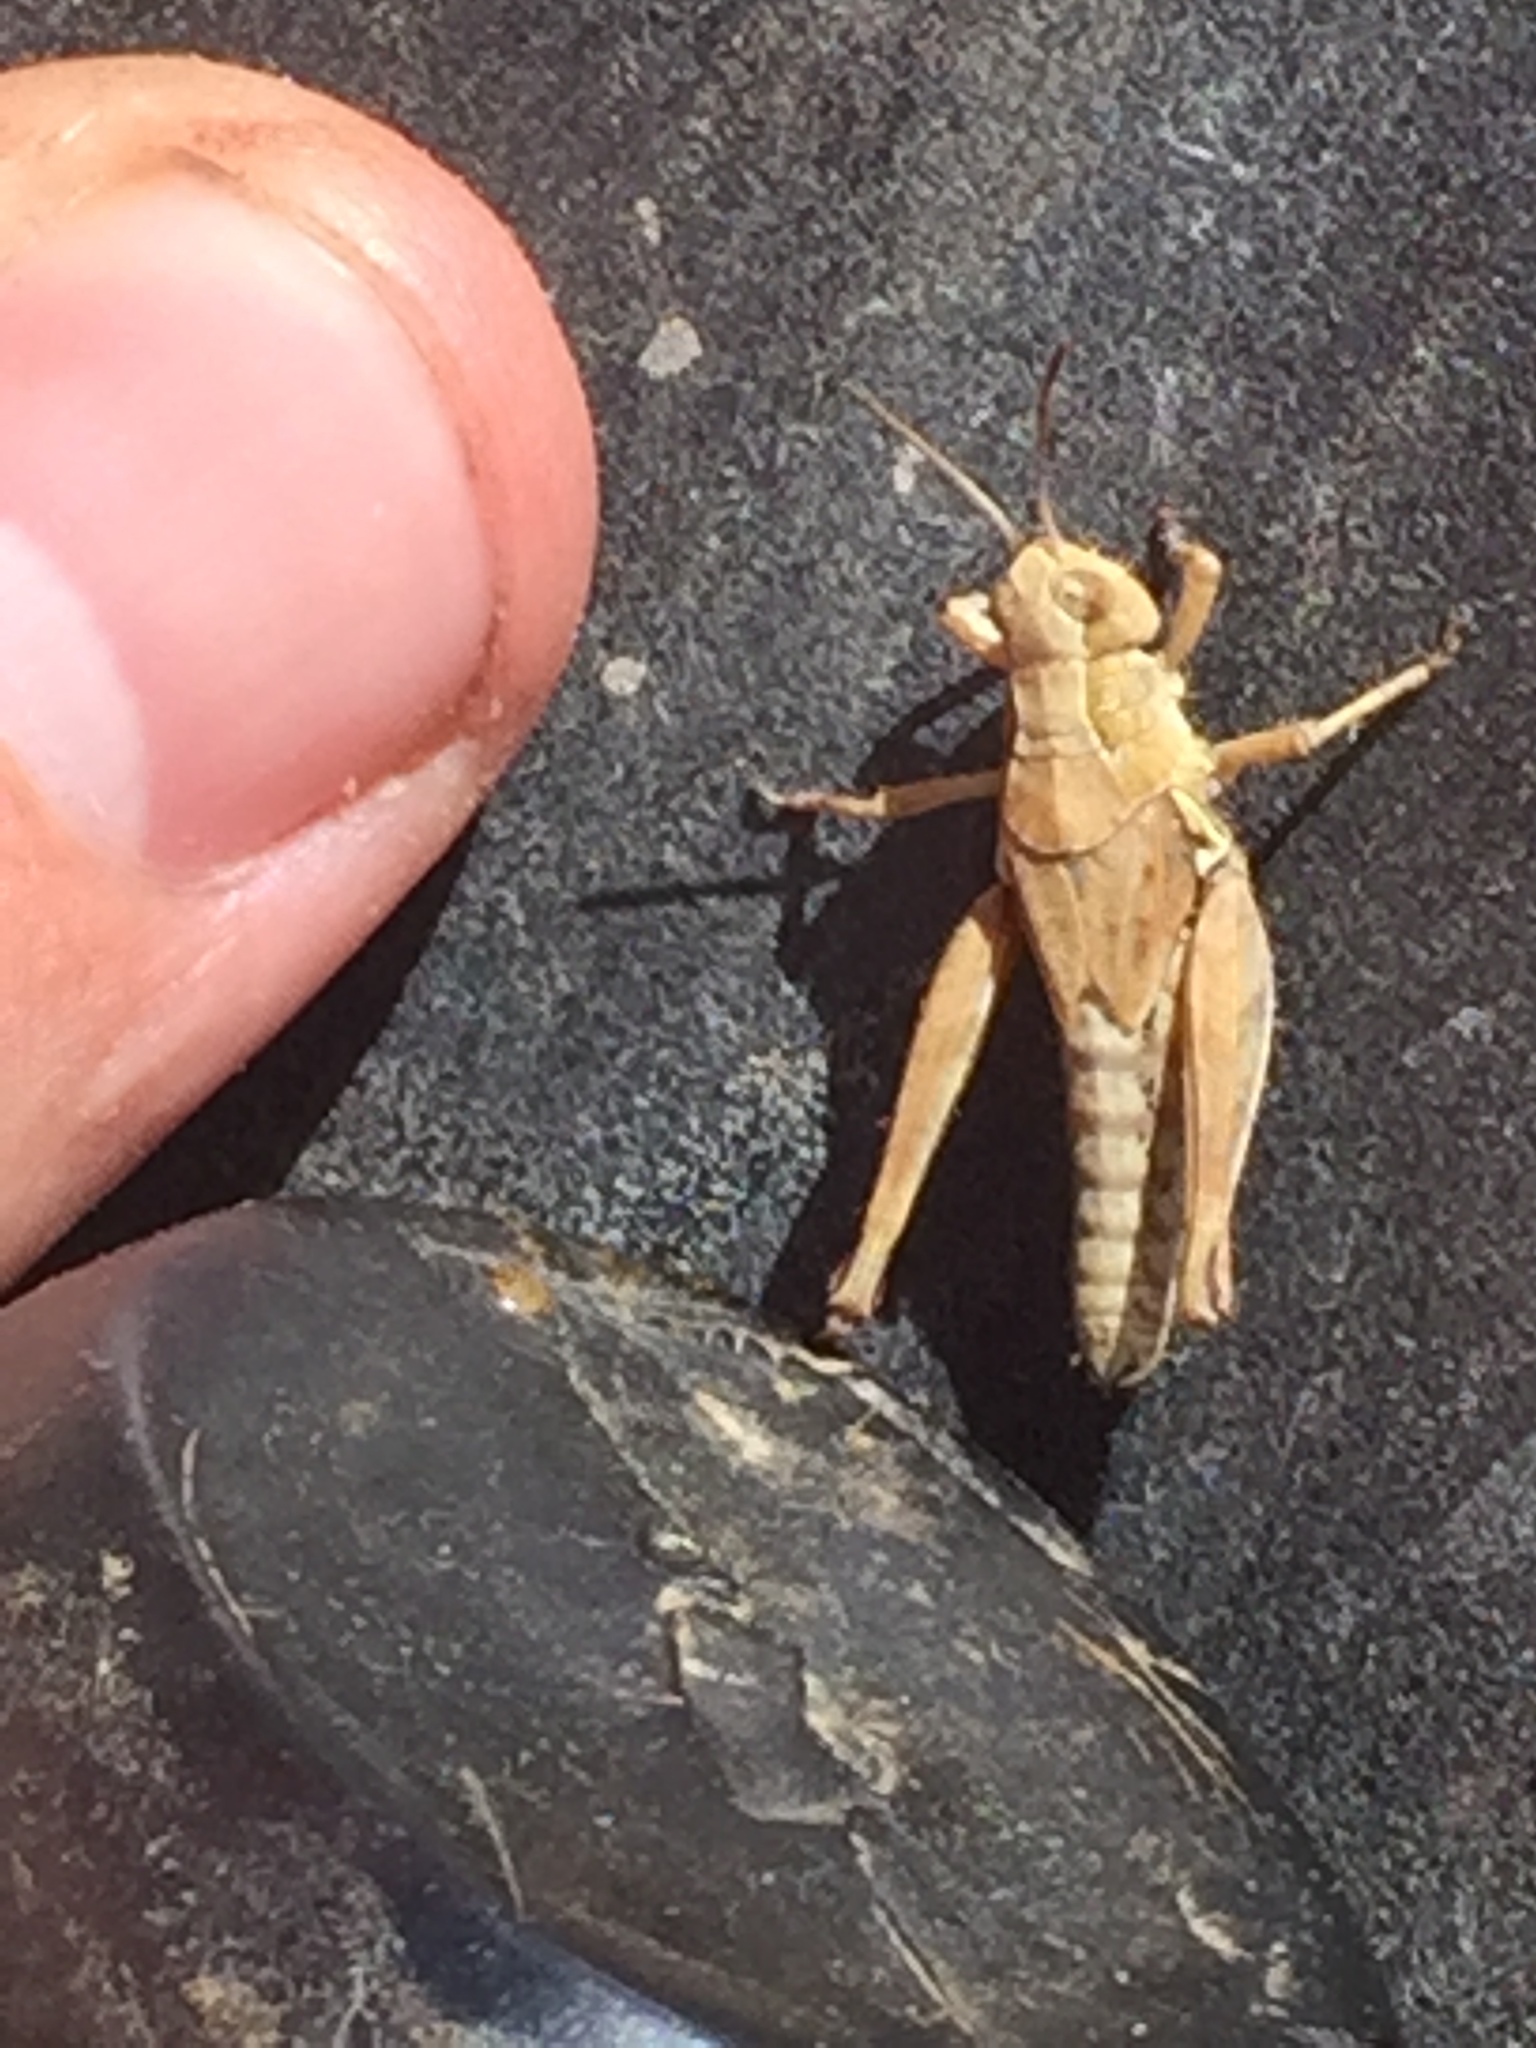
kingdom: Animalia
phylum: Arthropoda
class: Insecta
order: Orthoptera
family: Acrididae
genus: Phaulacridium
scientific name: Phaulacridium marginale
